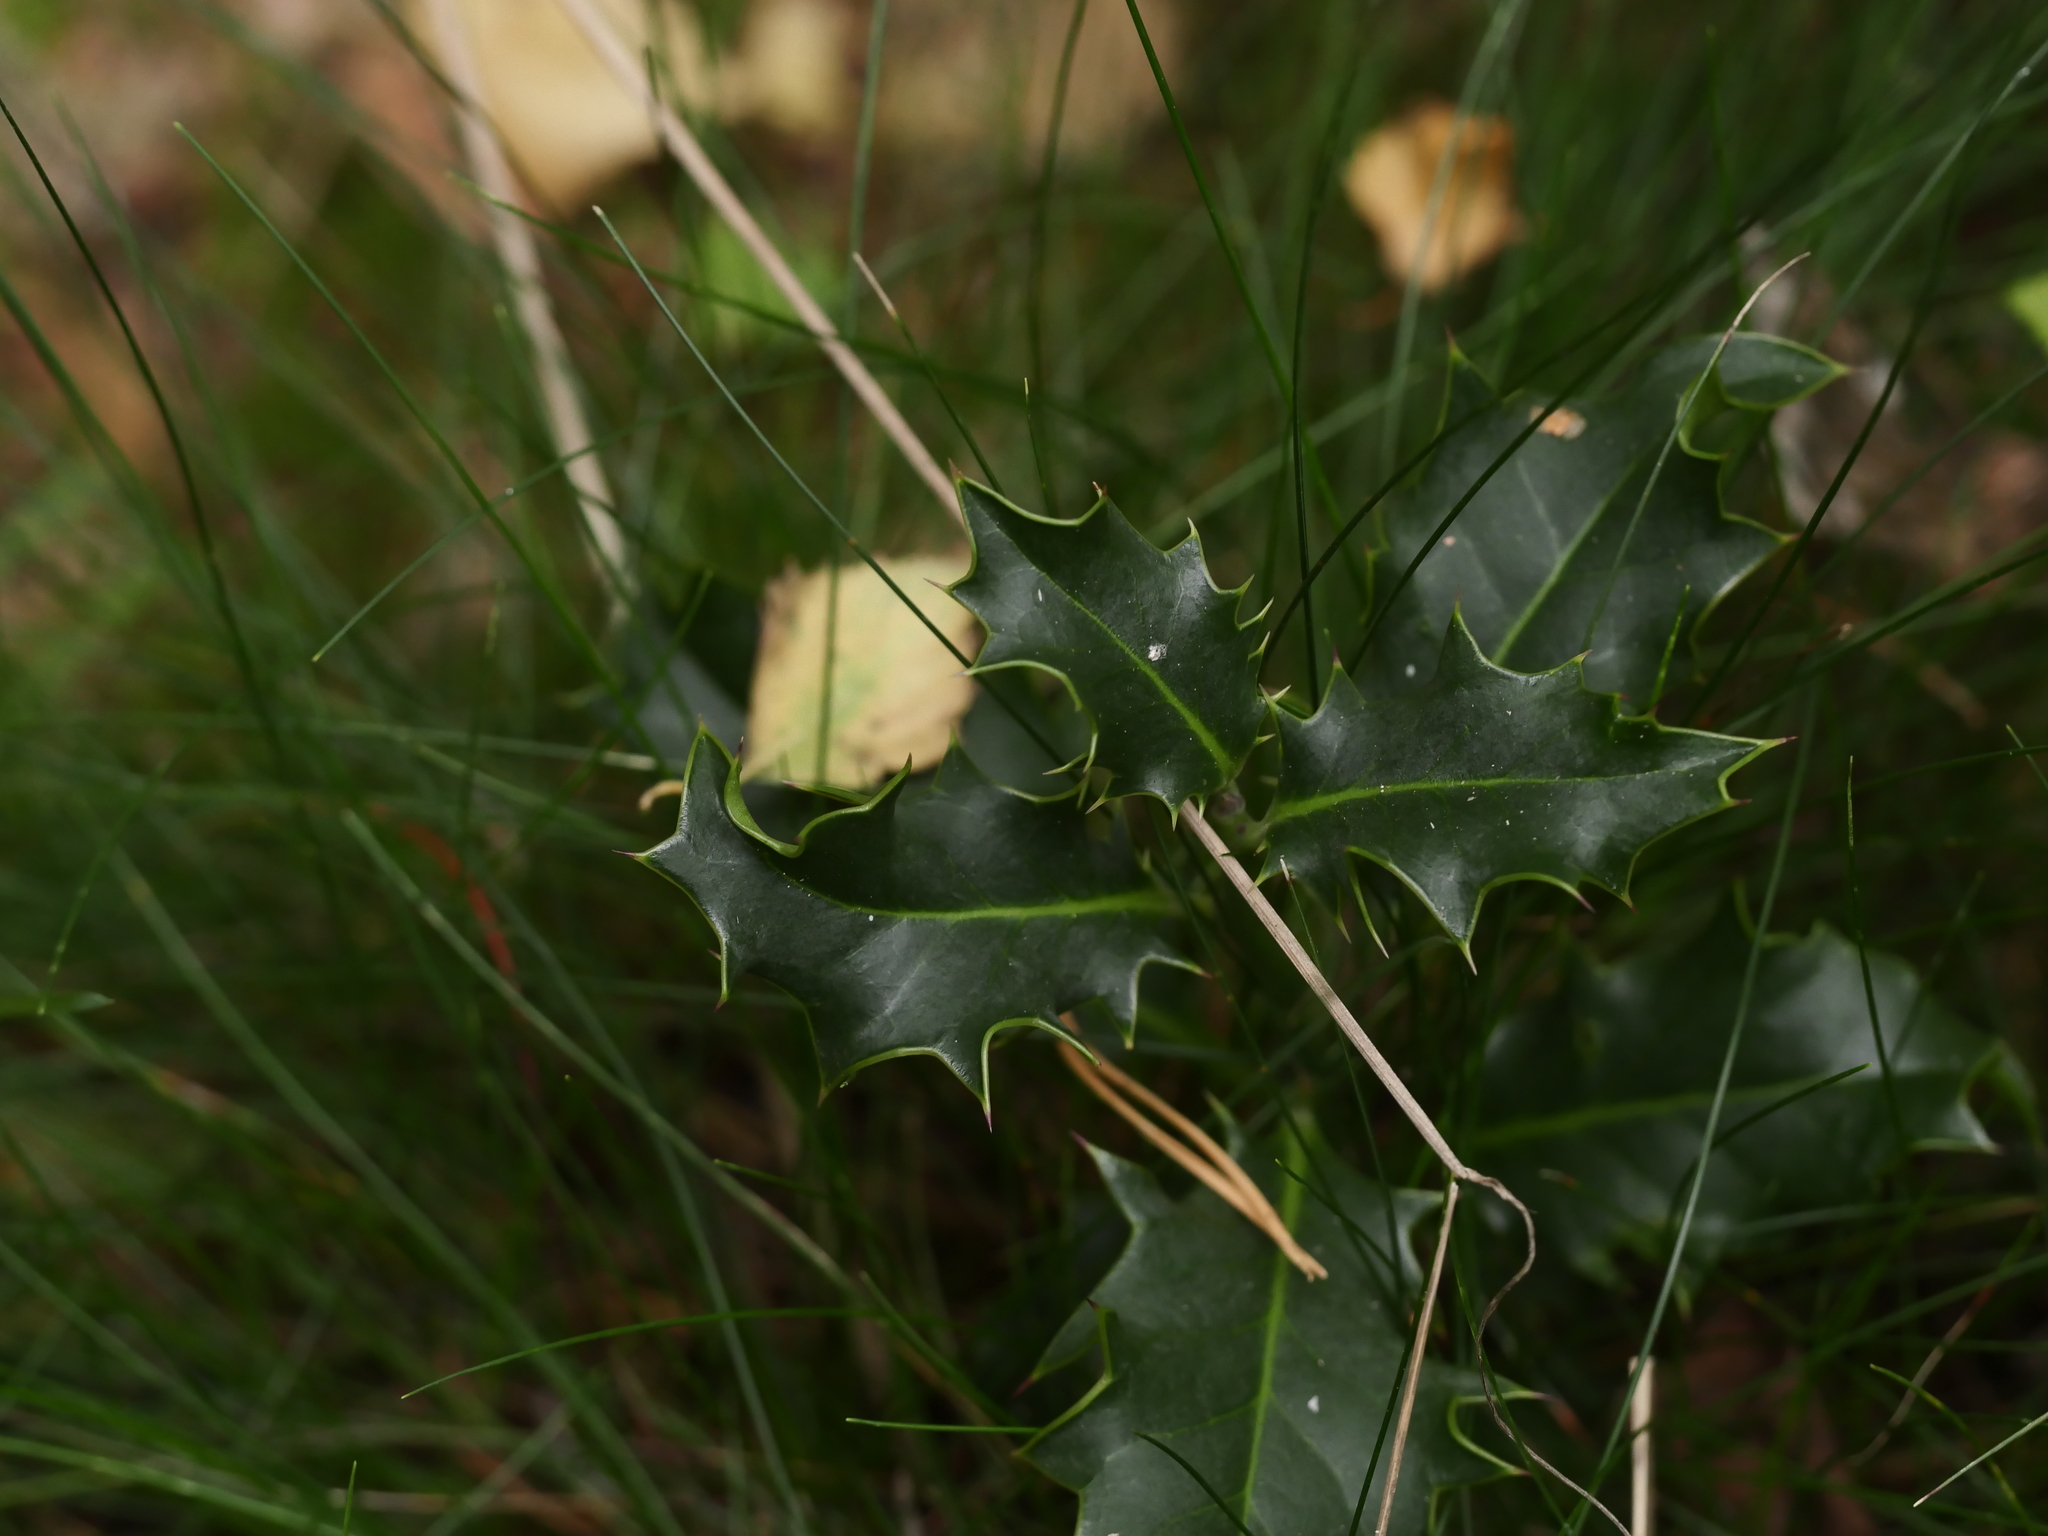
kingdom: Plantae
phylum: Tracheophyta
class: Magnoliopsida
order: Aquifoliales
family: Aquifoliaceae
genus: Ilex
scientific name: Ilex aquifolium
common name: English holly
